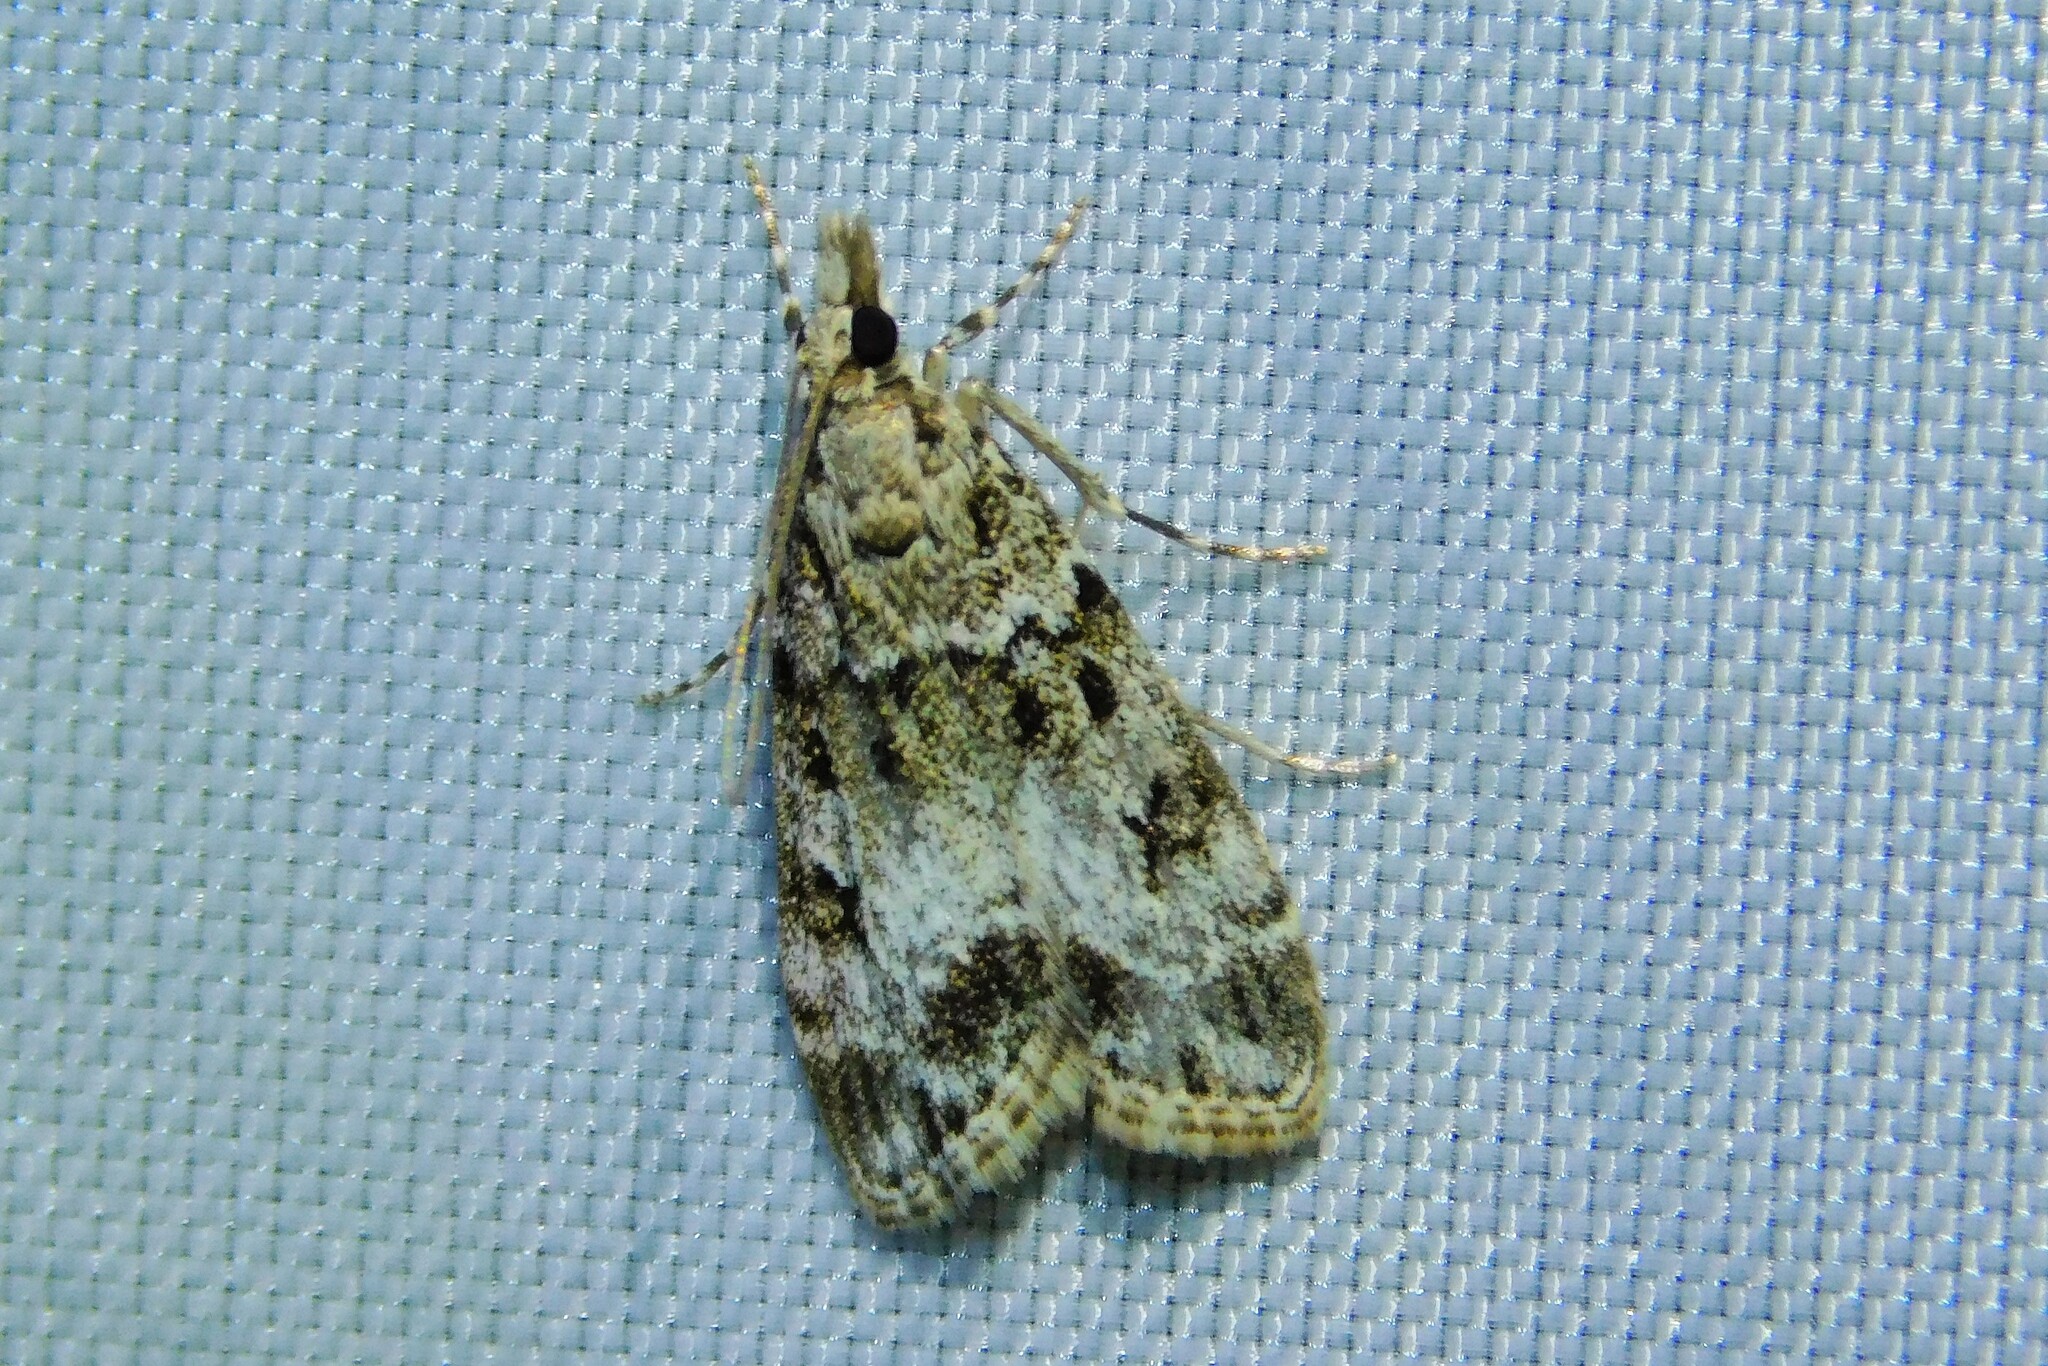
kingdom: Animalia
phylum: Arthropoda
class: Insecta
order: Lepidoptera
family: Crambidae
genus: Eudonia
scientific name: Eudonia mercurella
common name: Small grey
